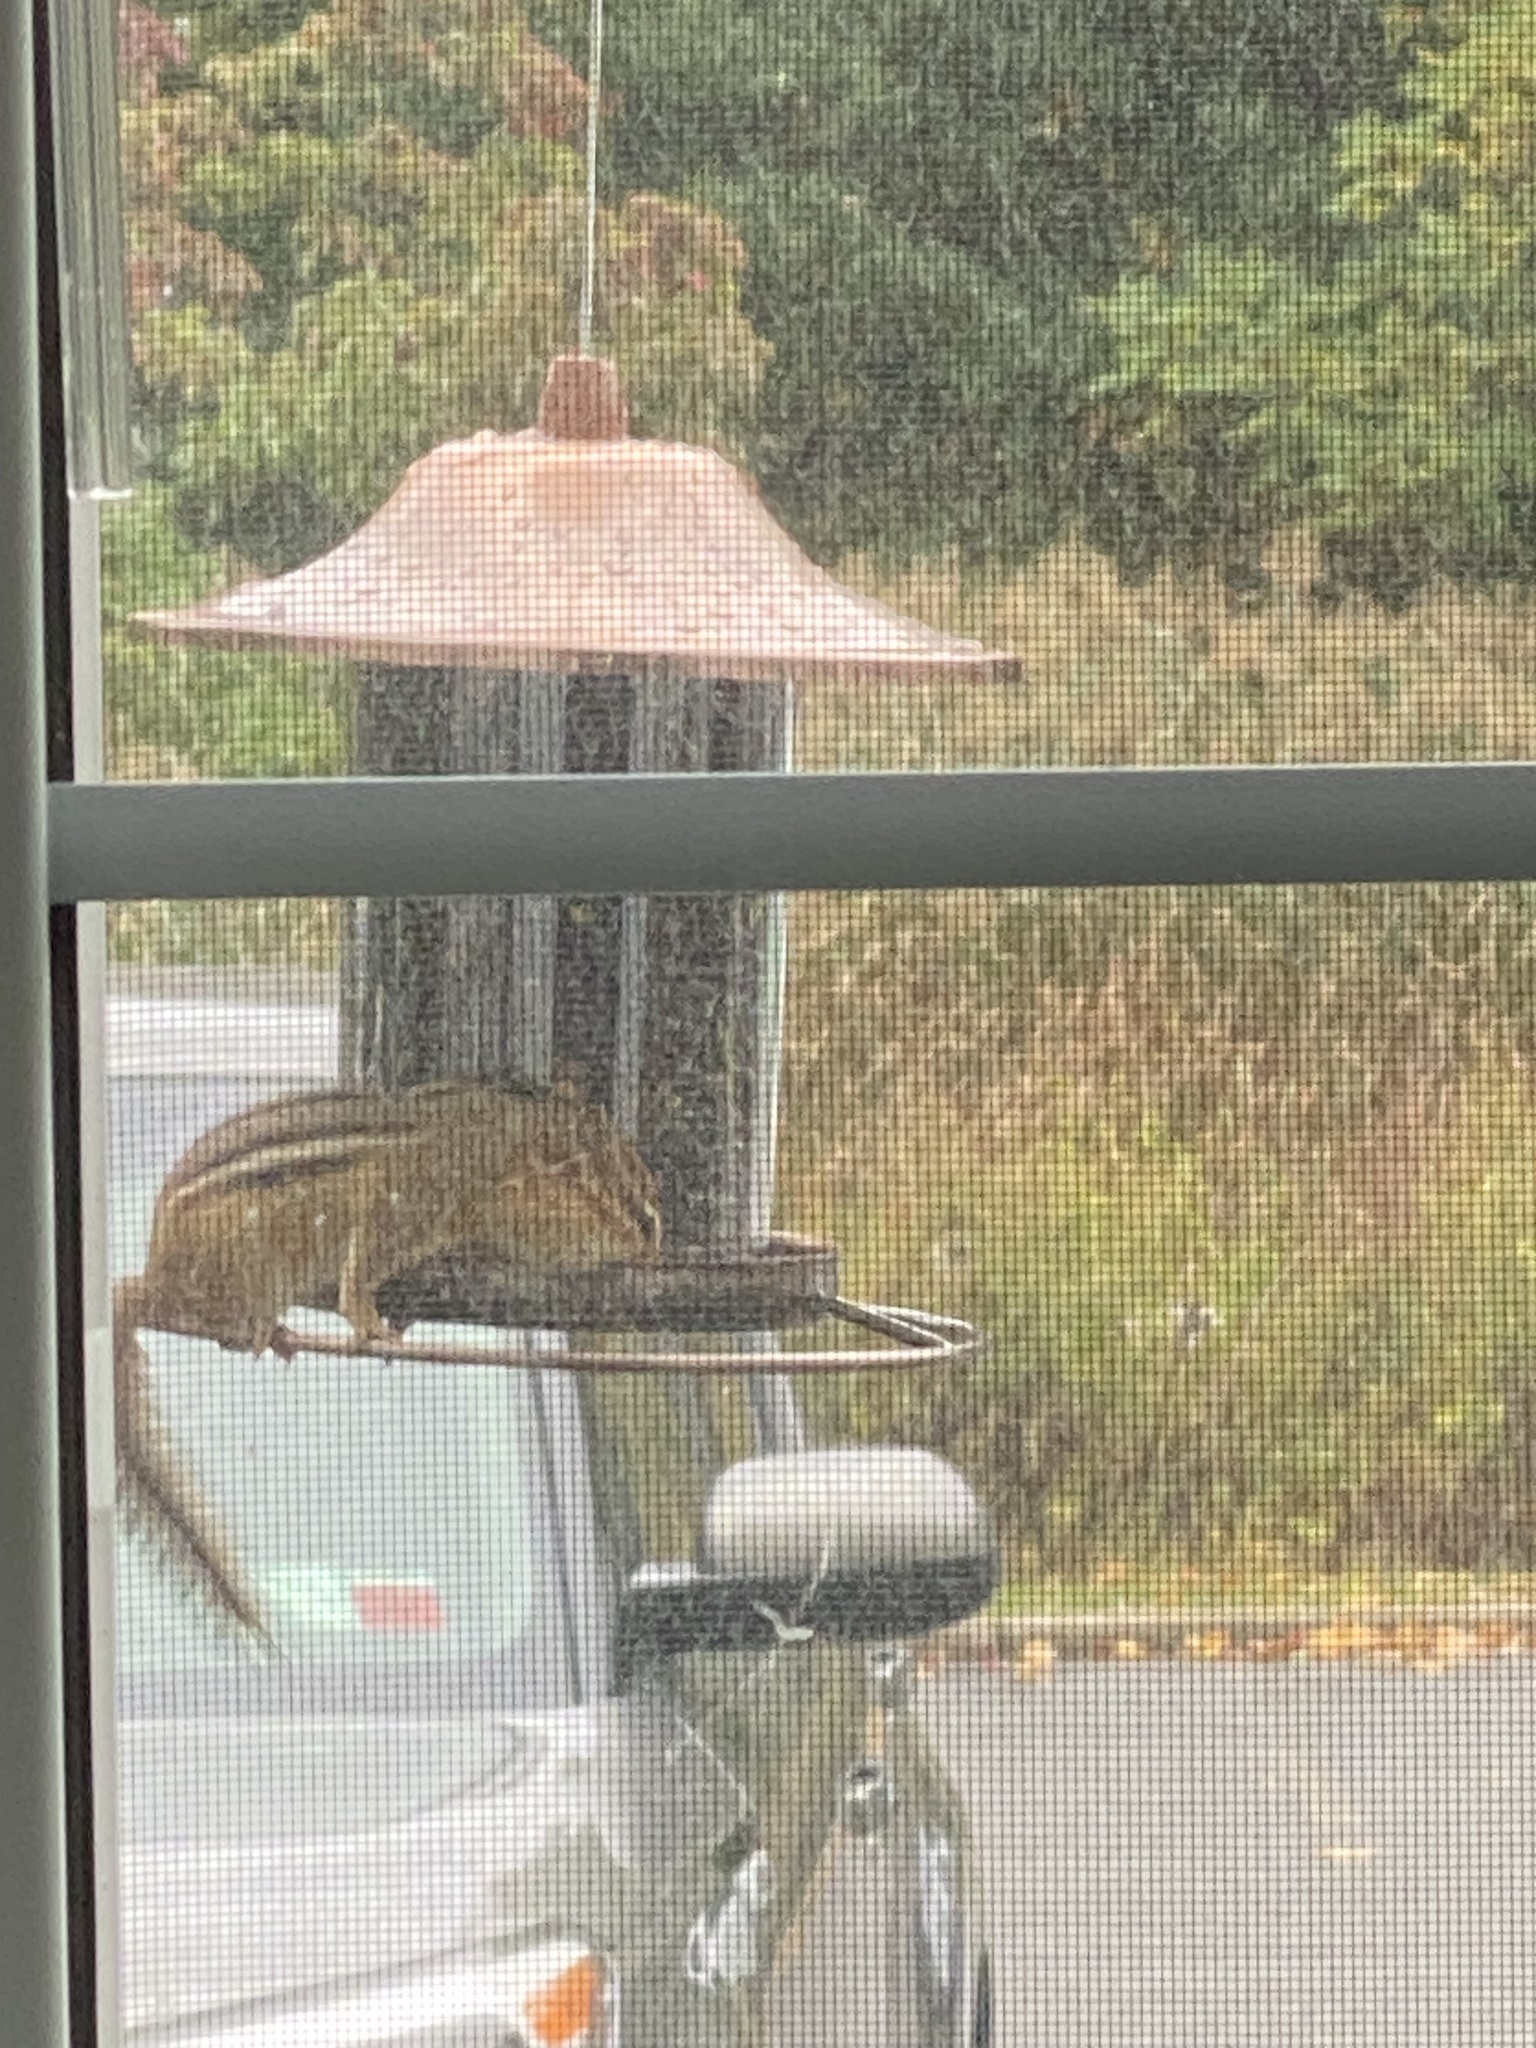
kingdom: Animalia
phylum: Chordata
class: Mammalia
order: Rodentia
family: Sciuridae
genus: Tamias
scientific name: Tamias striatus
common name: Eastern chipmunk
